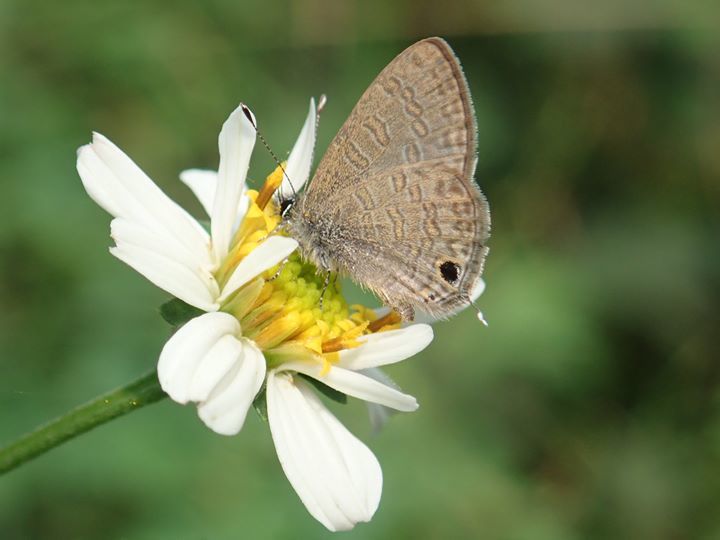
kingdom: Animalia
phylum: Arthropoda
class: Insecta
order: Lepidoptera
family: Lycaenidae
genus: Prosotas
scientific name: Prosotas nora
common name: Common line blue
